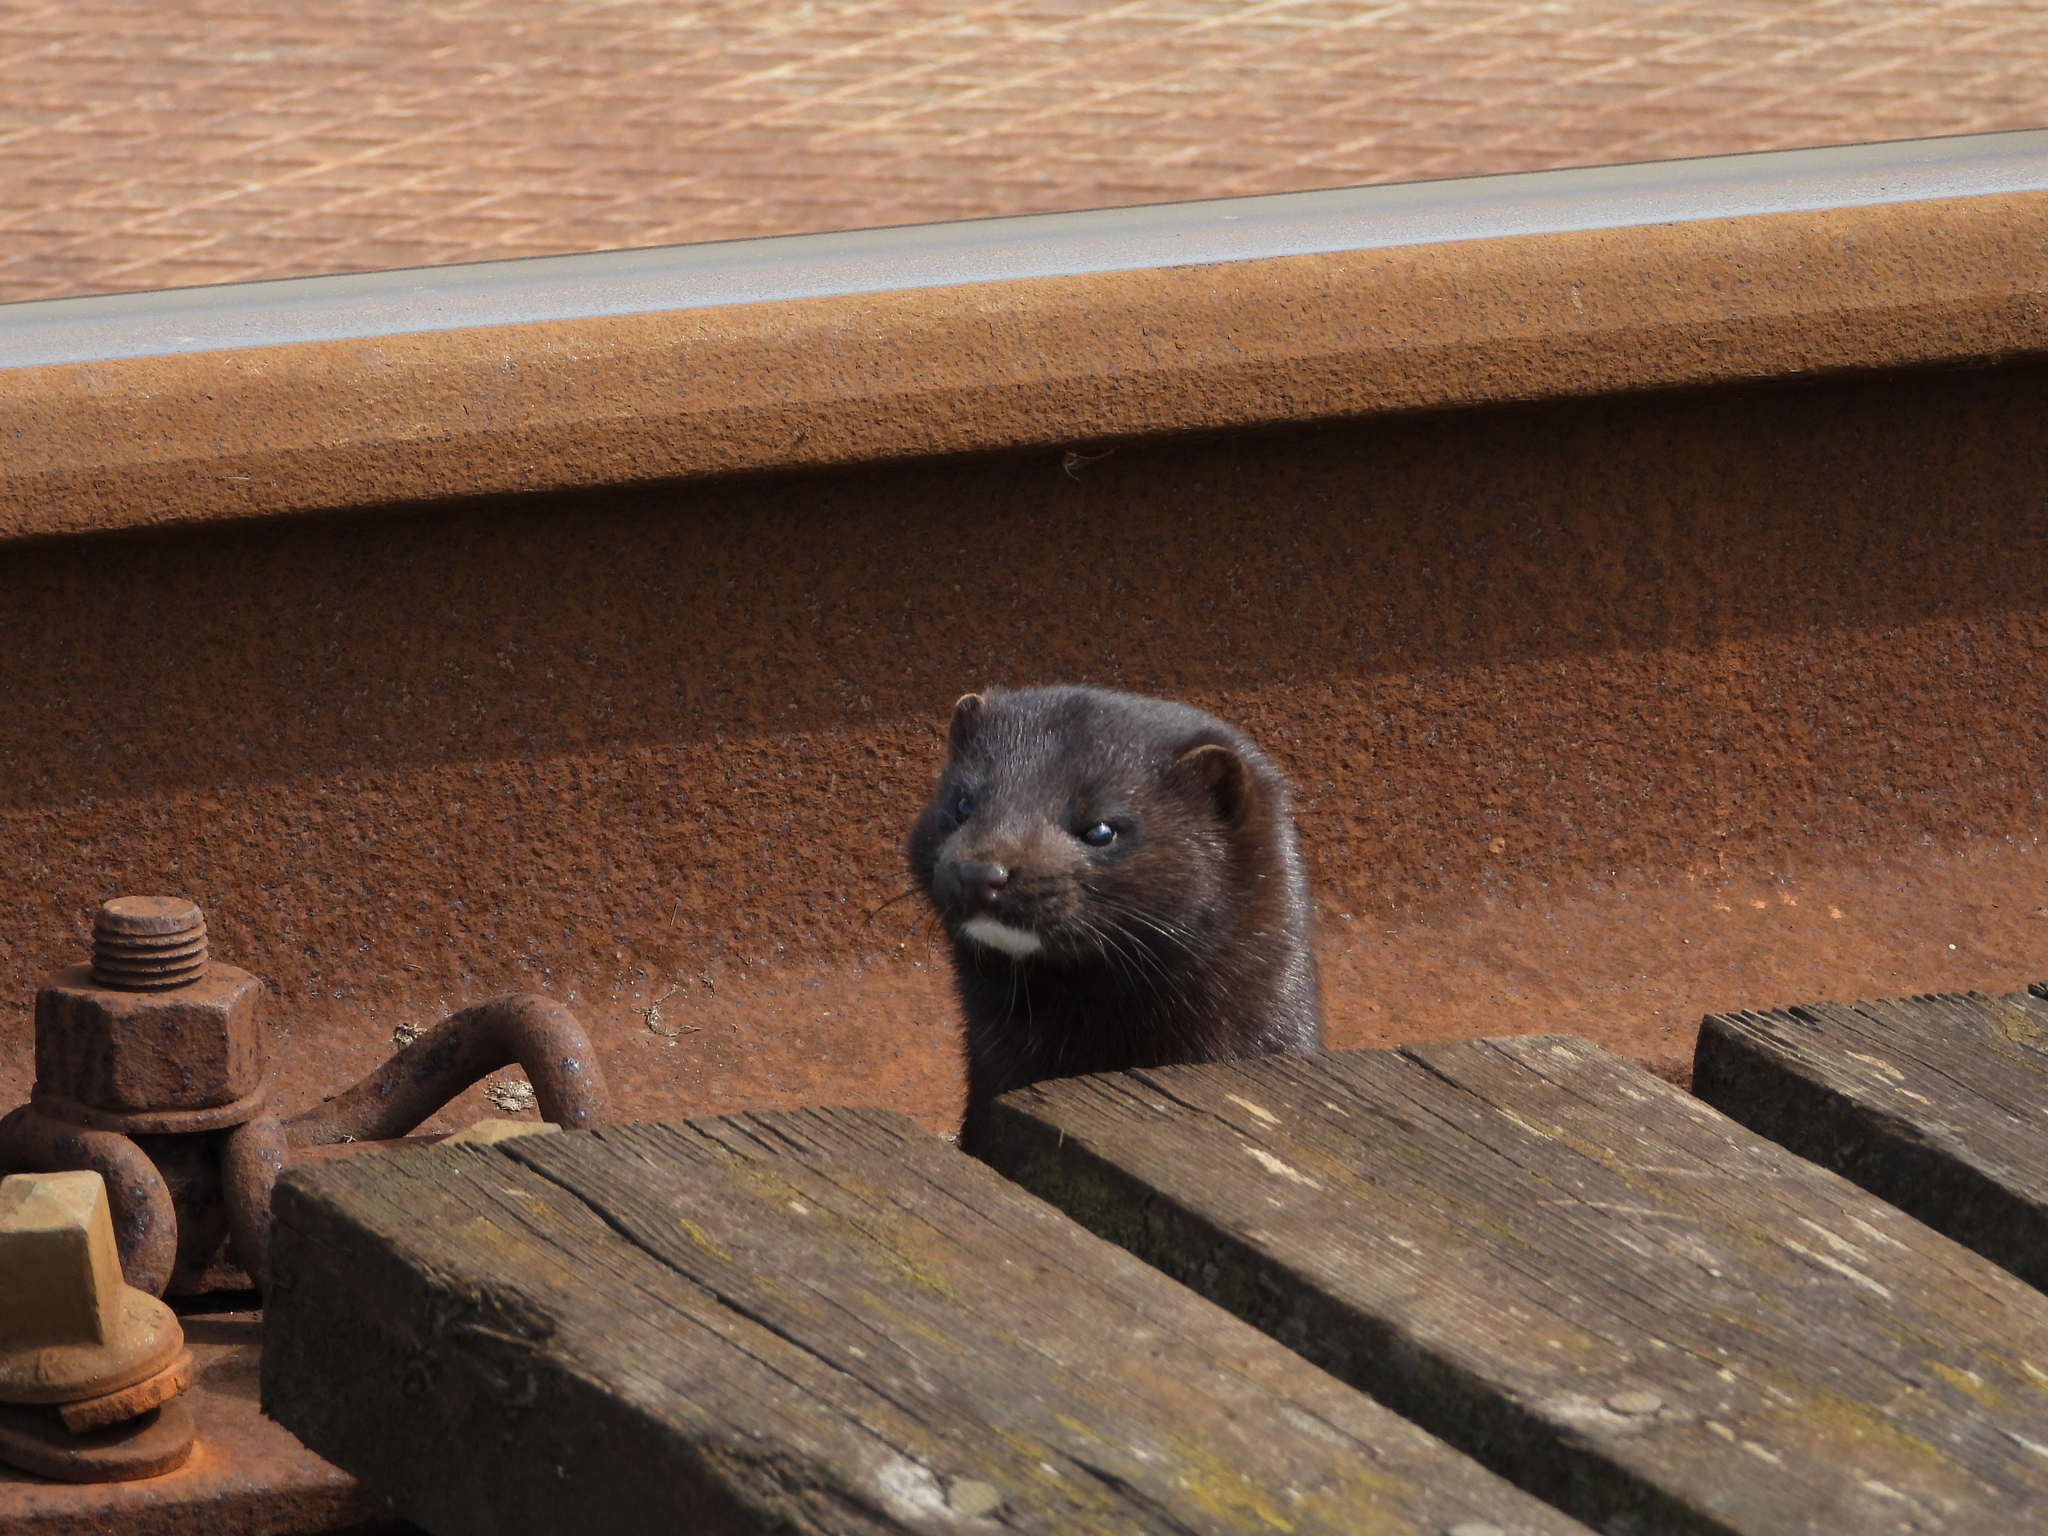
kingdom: Animalia
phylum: Chordata
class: Mammalia
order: Carnivora
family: Mustelidae
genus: Mustela
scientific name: Mustela
